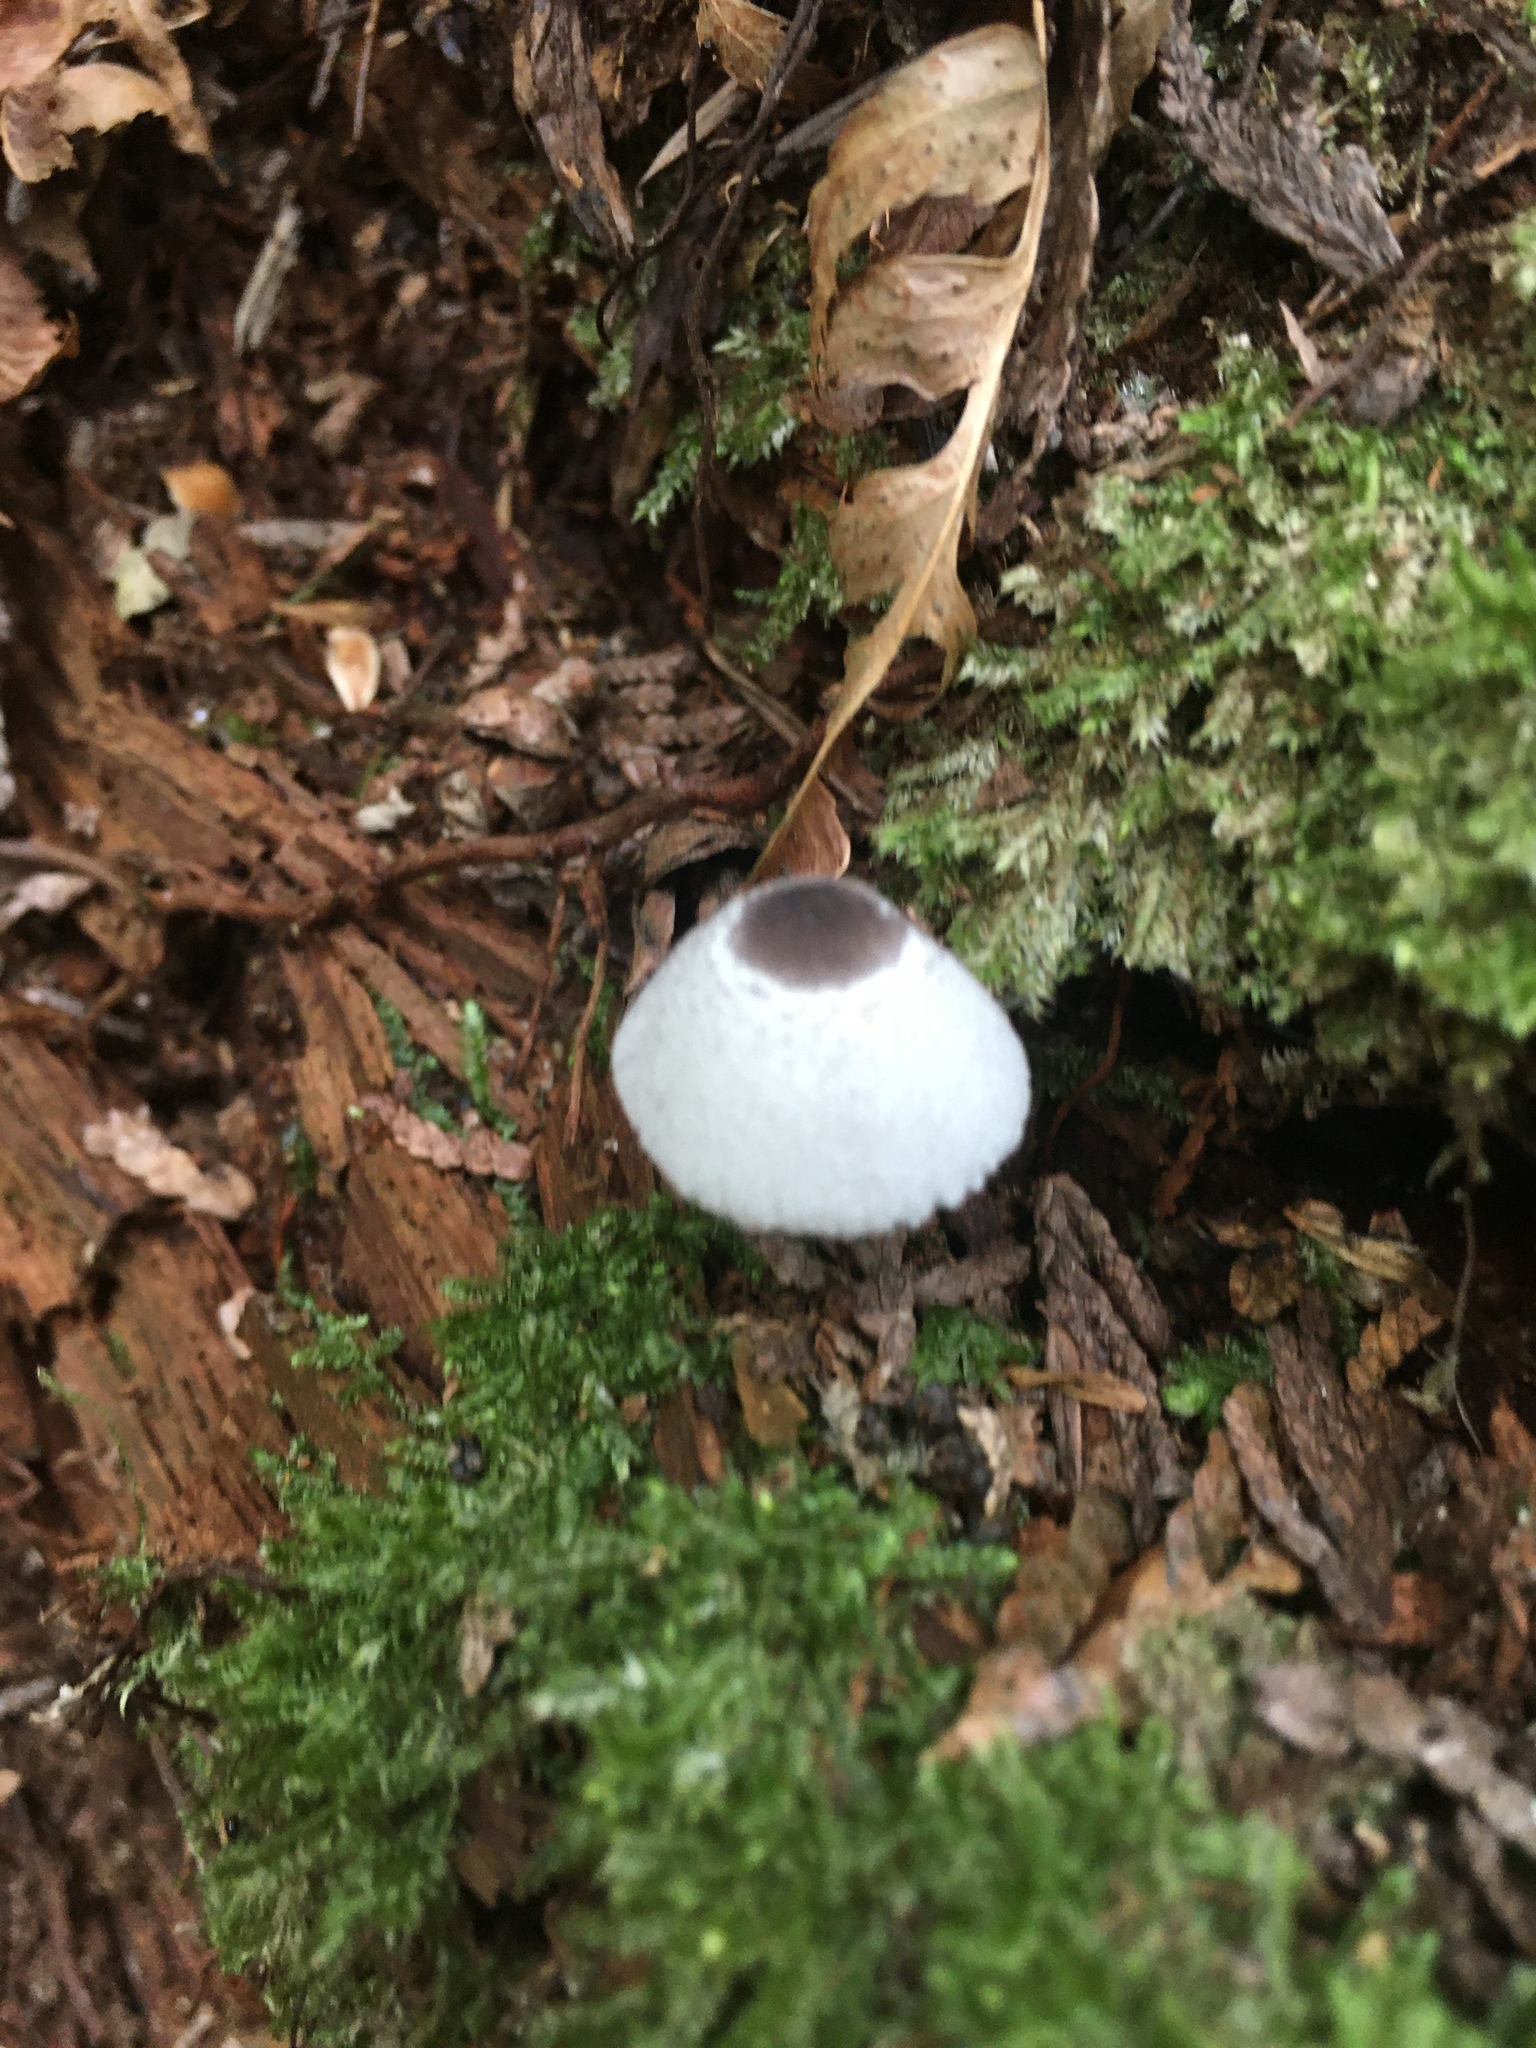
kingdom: Fungi
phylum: Basidiomycota
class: Agaricomycetes
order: Agaricales
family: Agaricaceae
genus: Leucocoprinus
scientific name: Leucocoprinus brebissonii
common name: Skullcap dapperling
